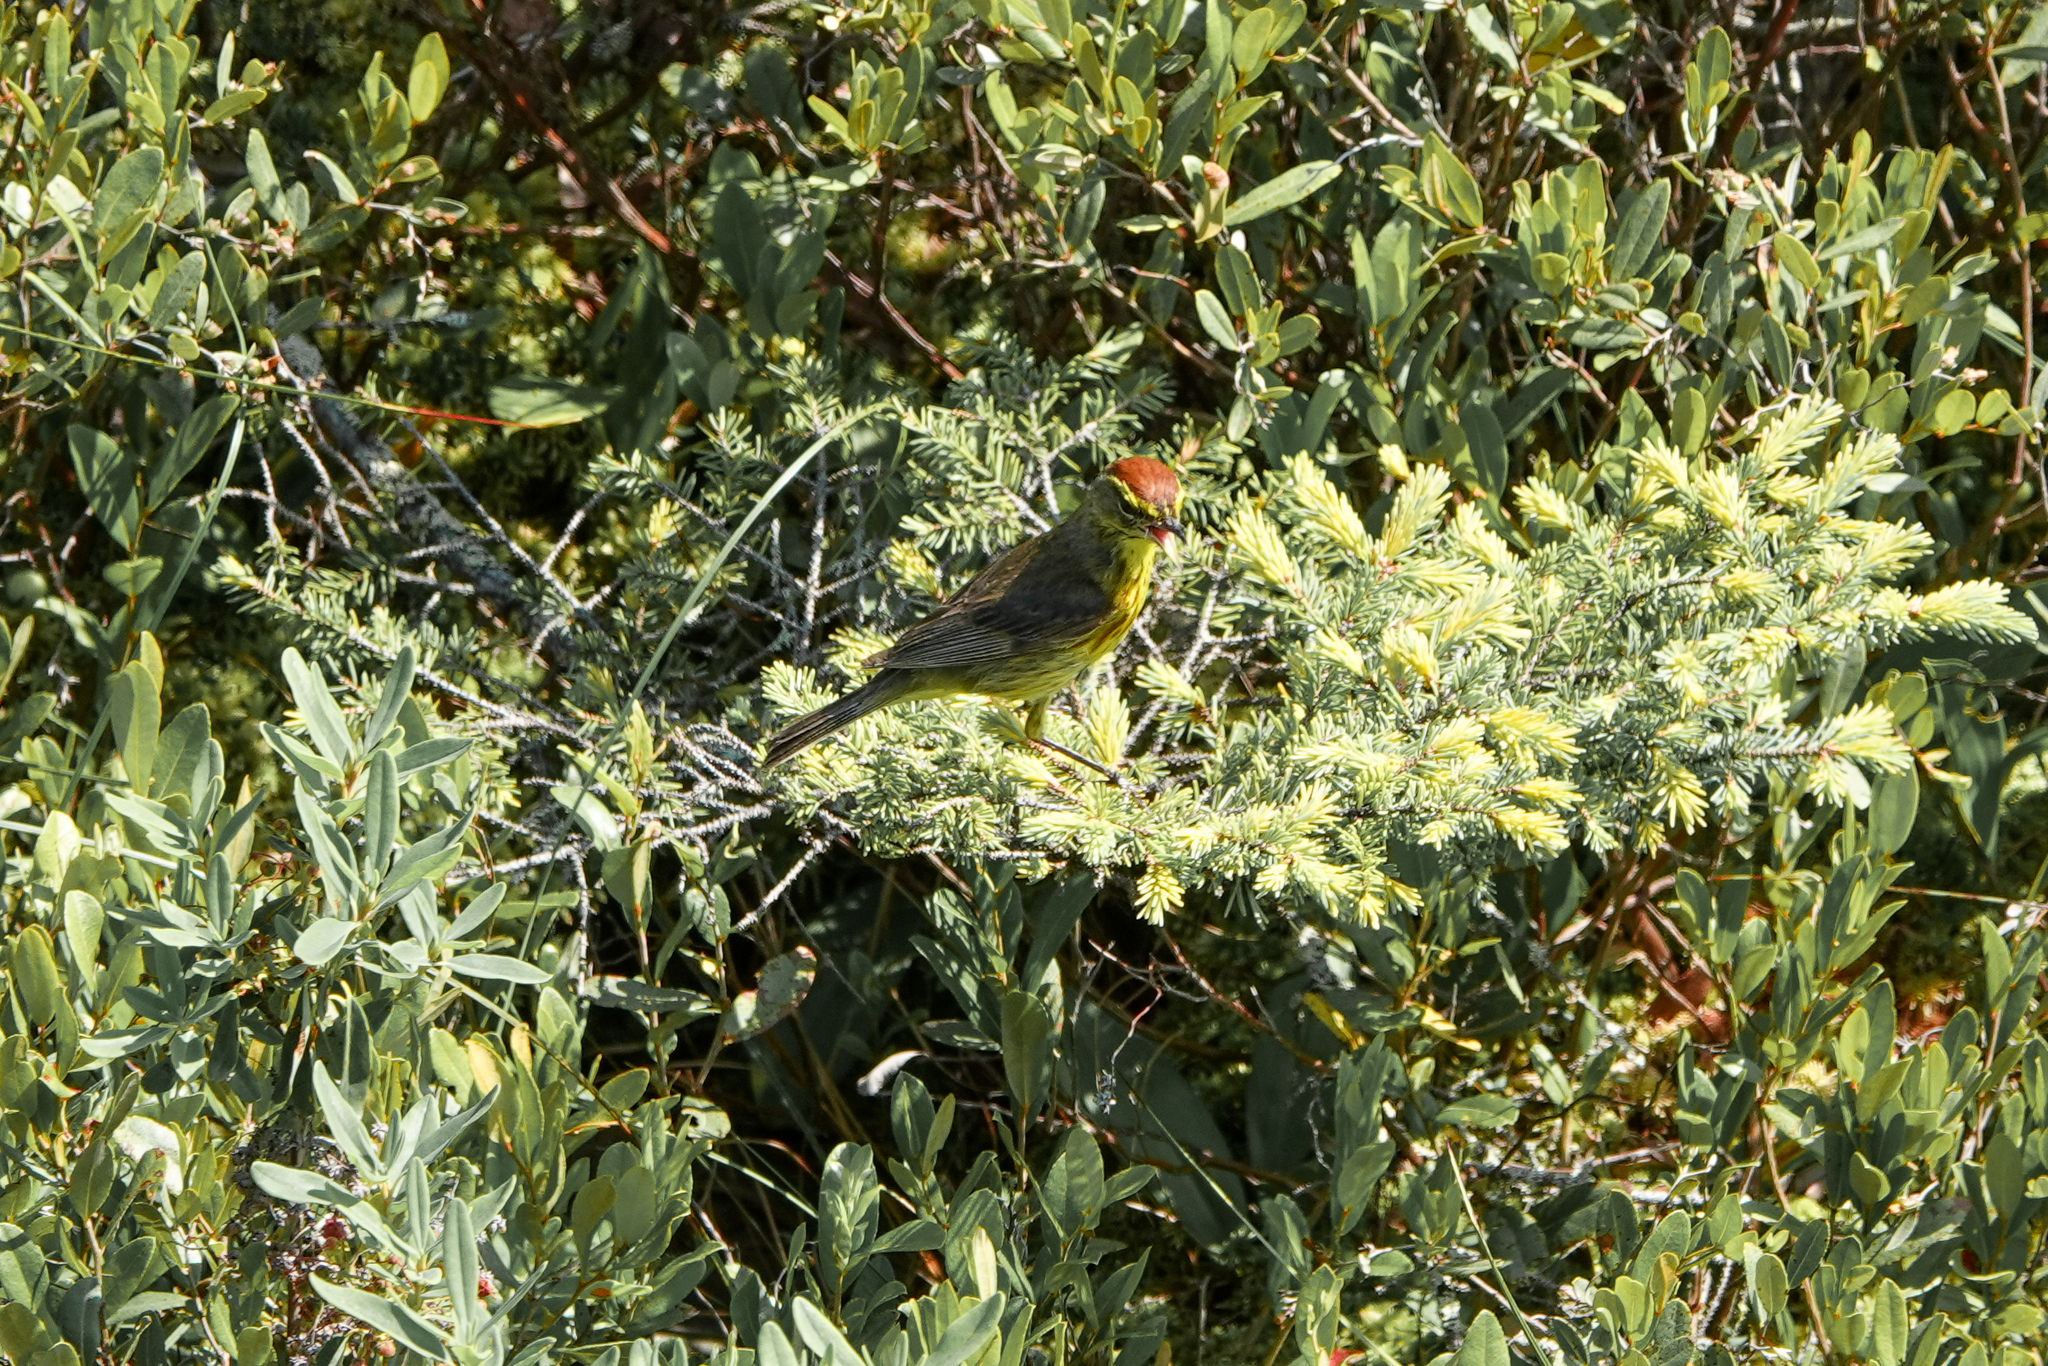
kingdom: Animalia
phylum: Chordata
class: Aves
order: Passeriformes
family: Parulidae
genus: Setophaga
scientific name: Setophaga palmarum
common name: Palm warbler
